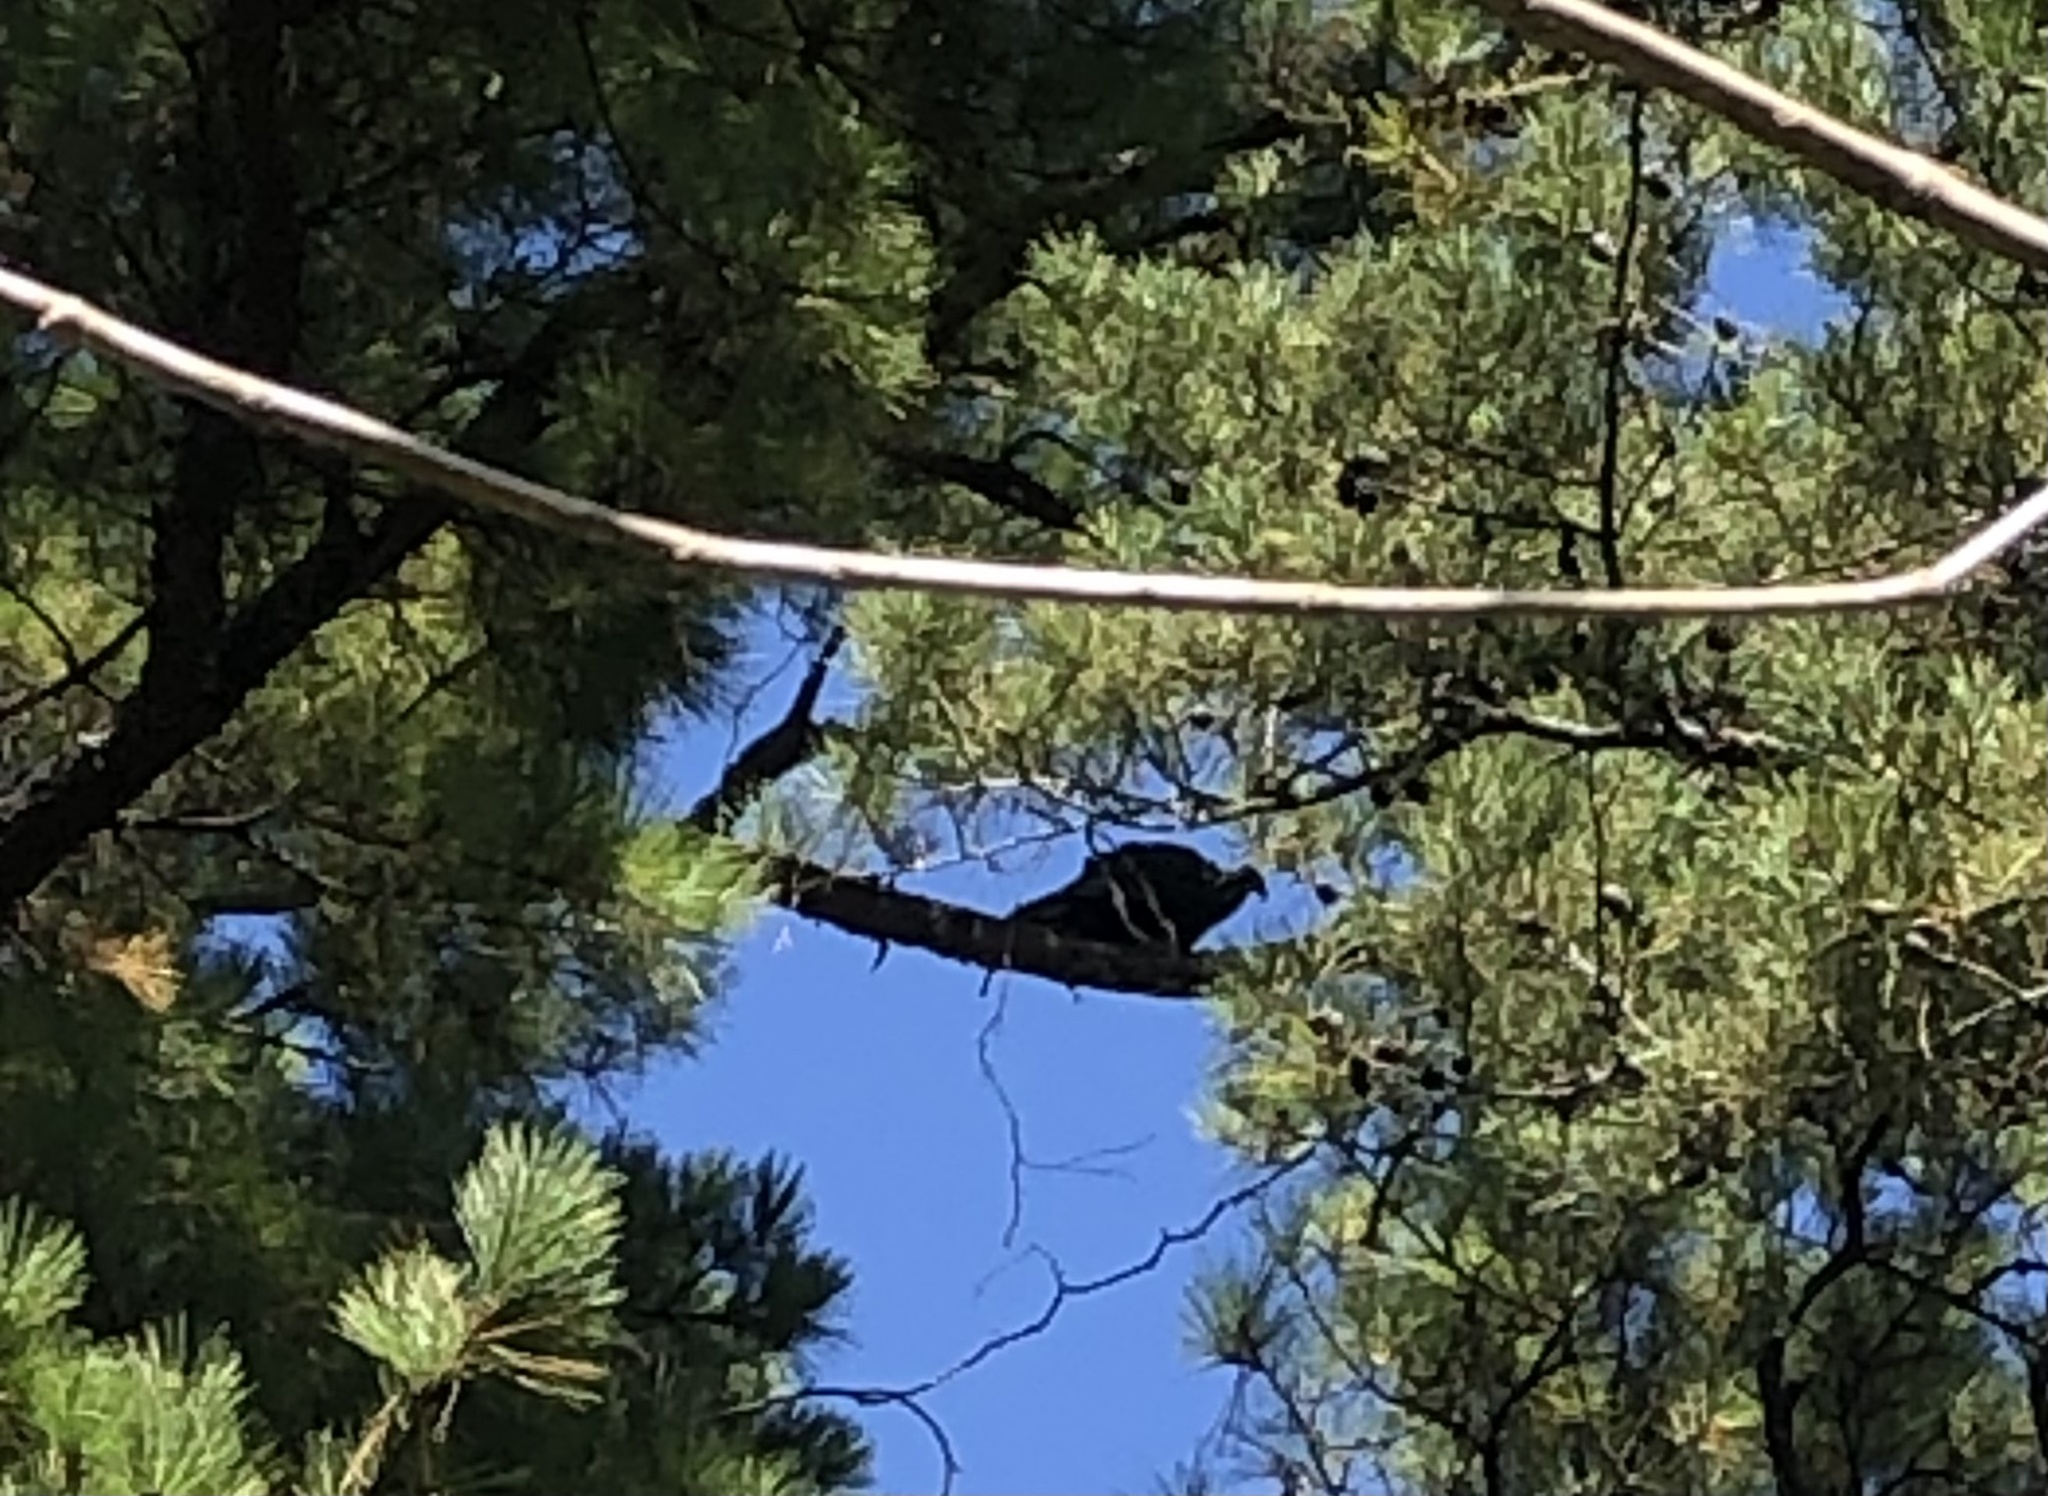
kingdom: Animalia
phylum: Chordata
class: Aves
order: Accipitriformes
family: Cathartidae
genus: Cathartes
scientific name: Cathartes aura
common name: Turkey vulture
